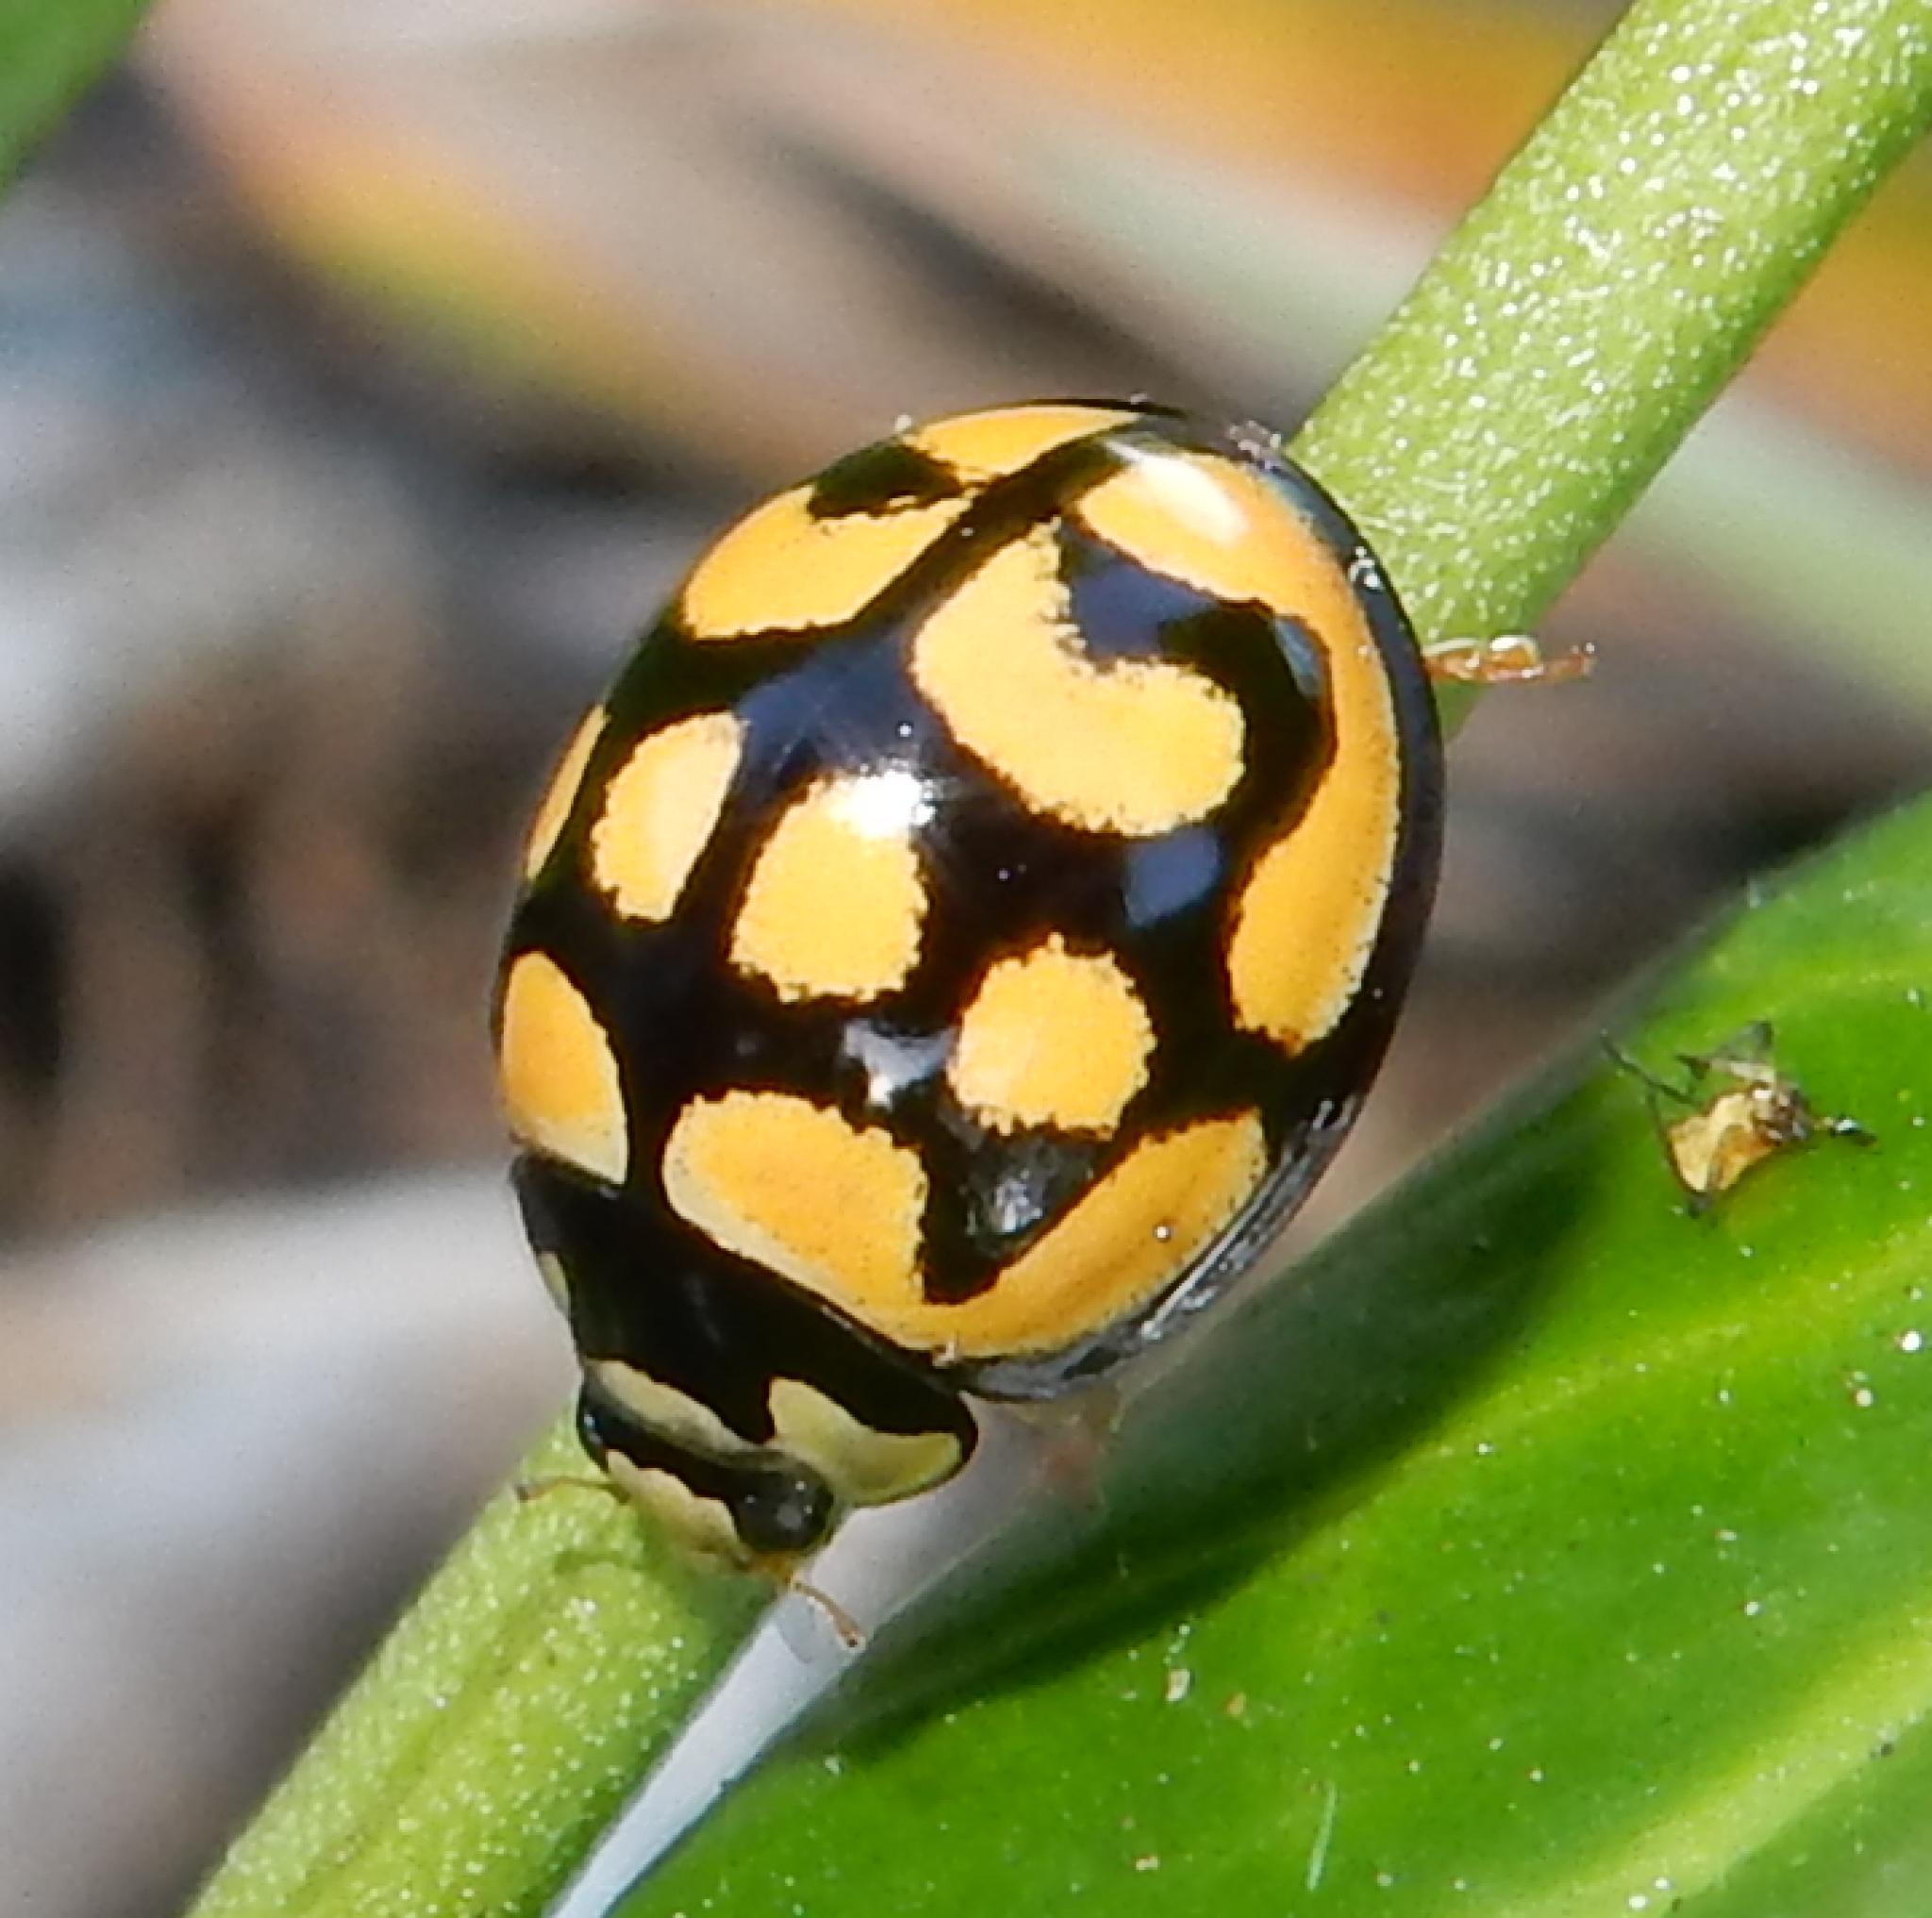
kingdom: Animalia
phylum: Arthropoda
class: Insecta
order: Coleoptera
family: Coccinellidae
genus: Cheilomenes
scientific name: Cheilomenes lunata
